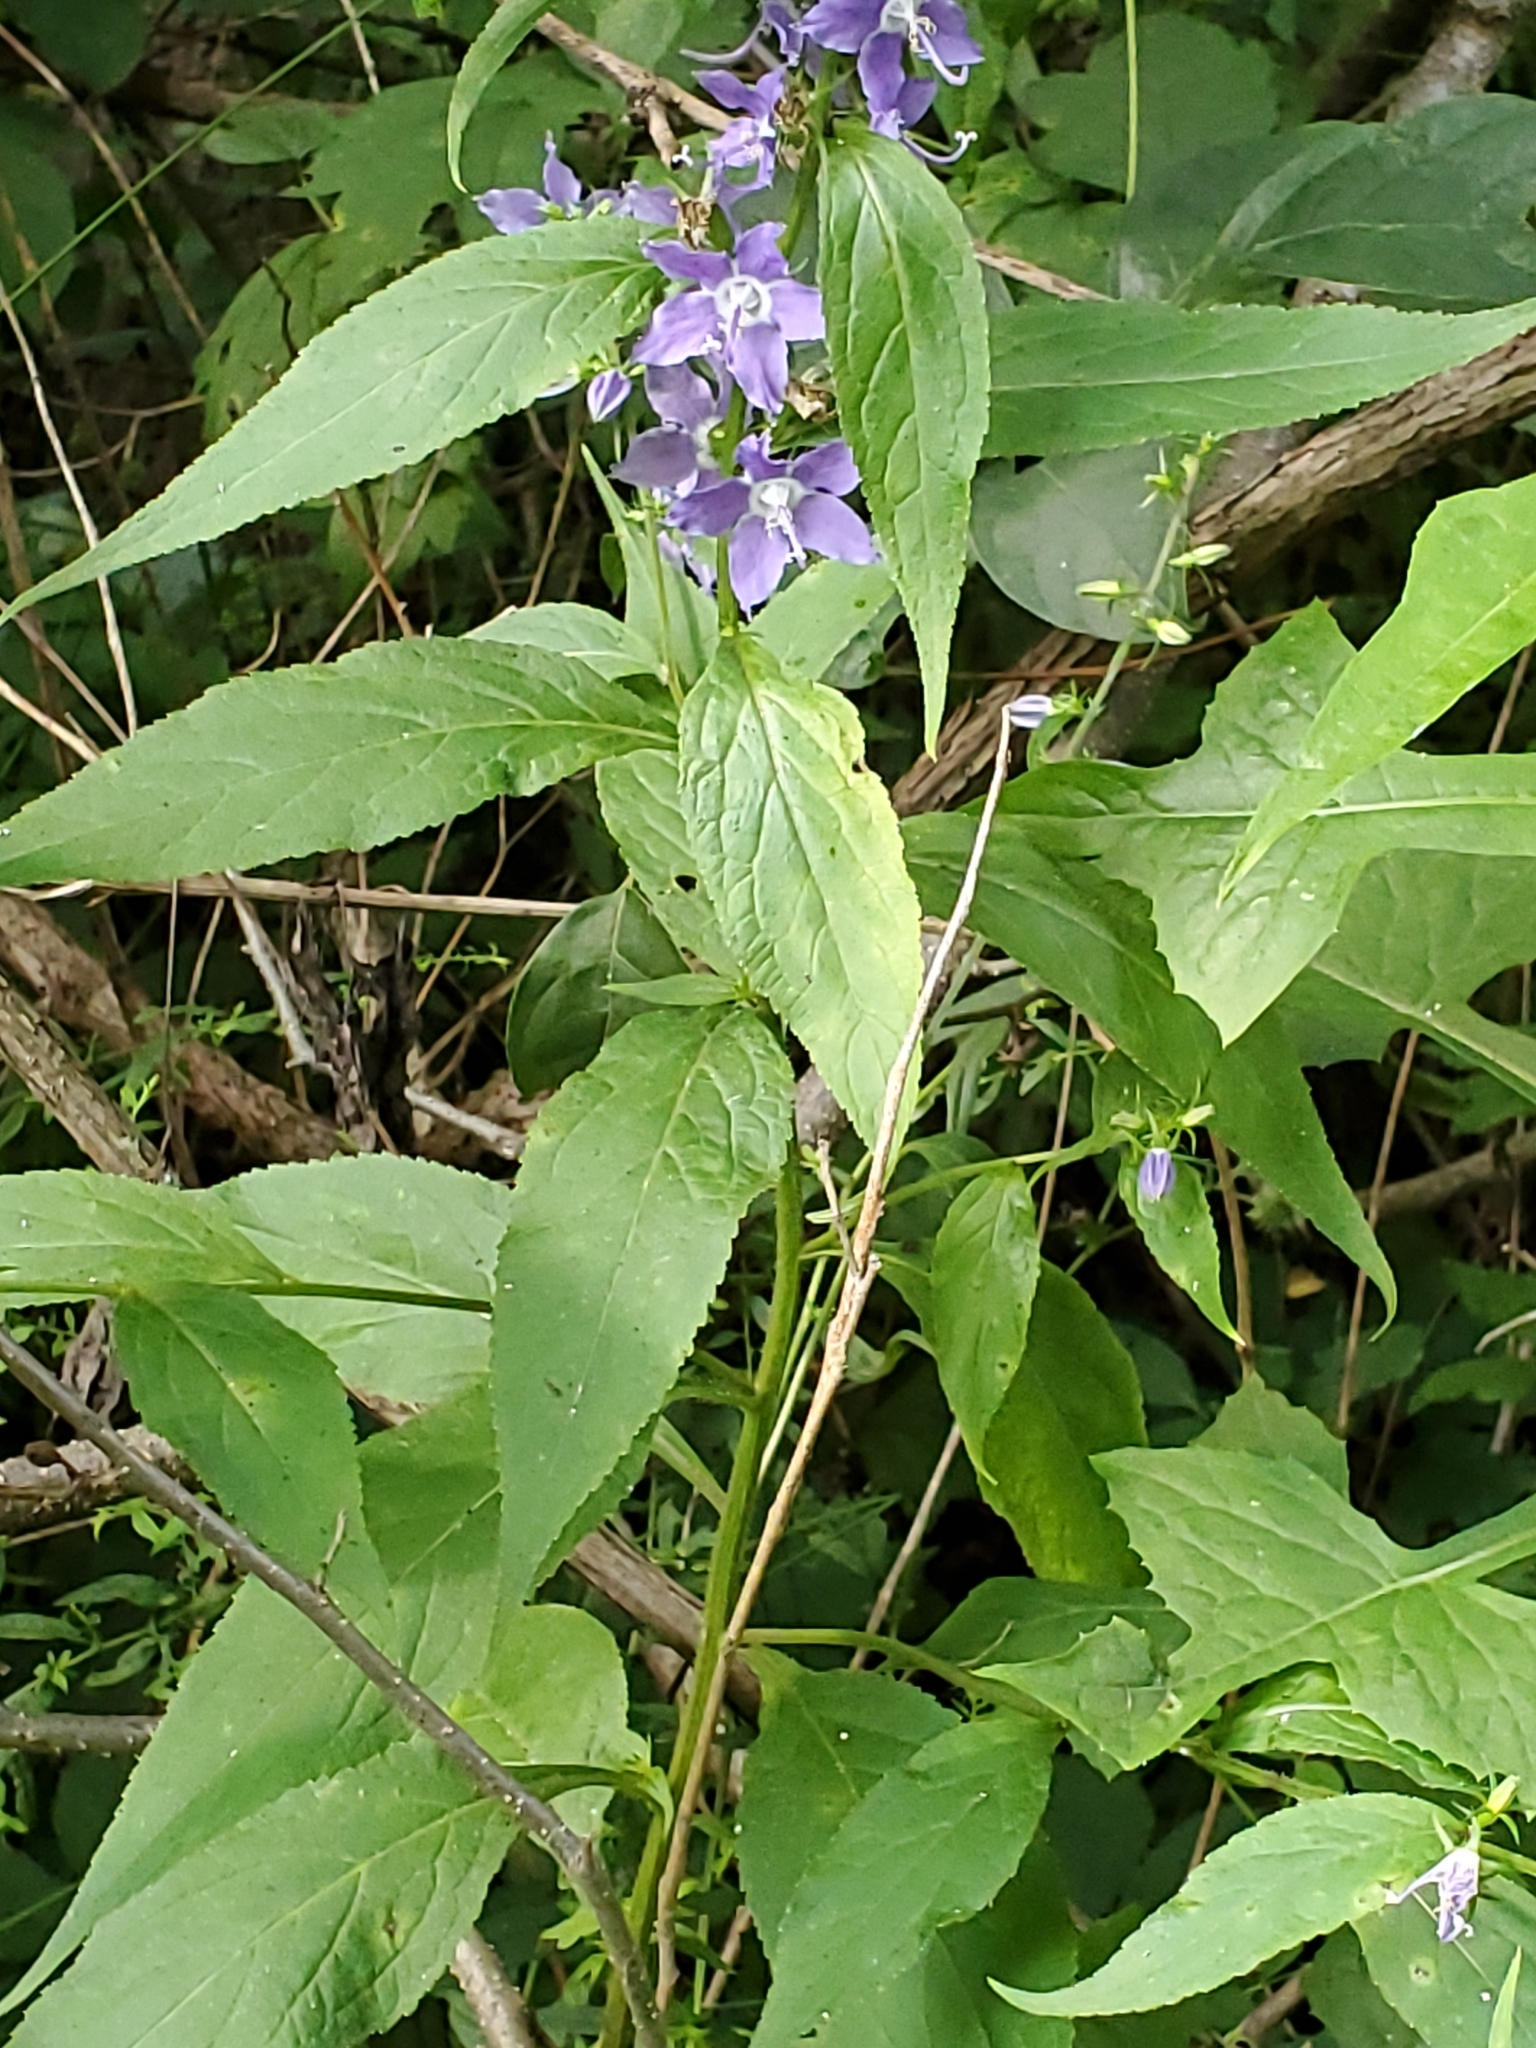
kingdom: Plantae
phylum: Tracheophyta
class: Magnoliopsida
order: Asterales
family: Campanulaceae
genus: Campanulastrum
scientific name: Campanulastrum americanum
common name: American bellflower
